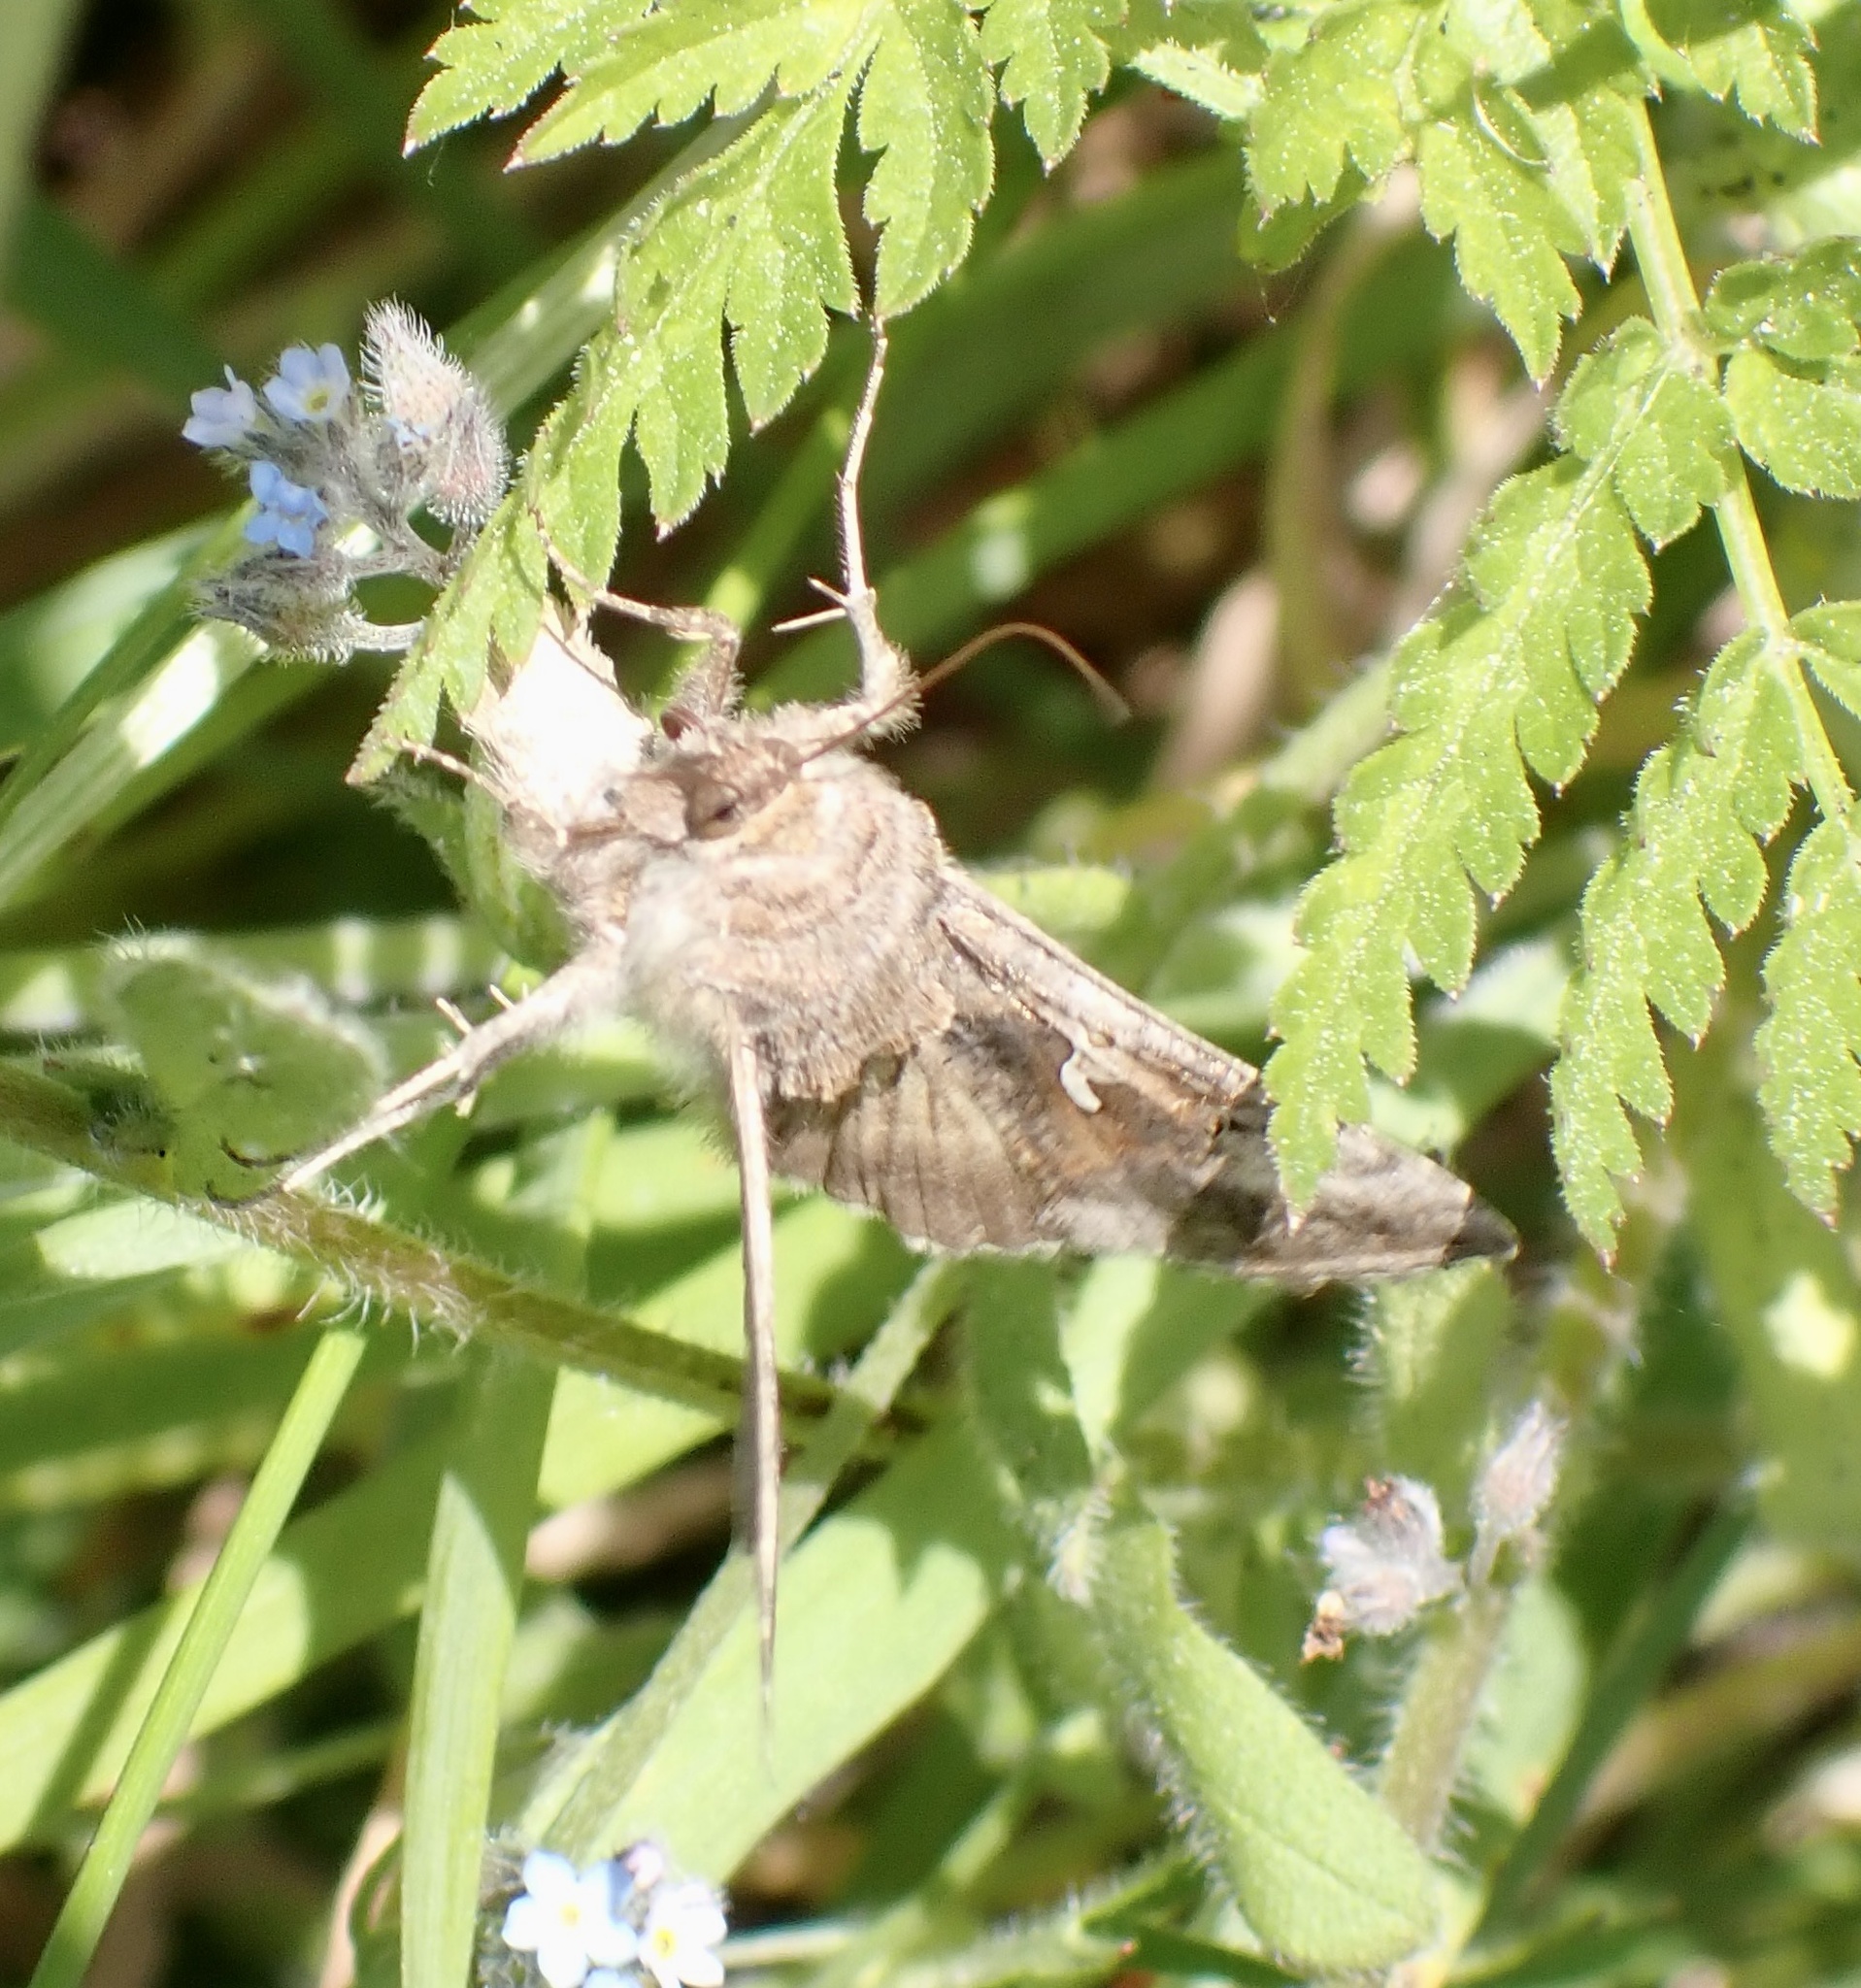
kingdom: Animalia
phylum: Arthropoda
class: Insecta
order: Lepidoptera
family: Noctuidae
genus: Autographa
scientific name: Autographa gamma
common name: Silver y
